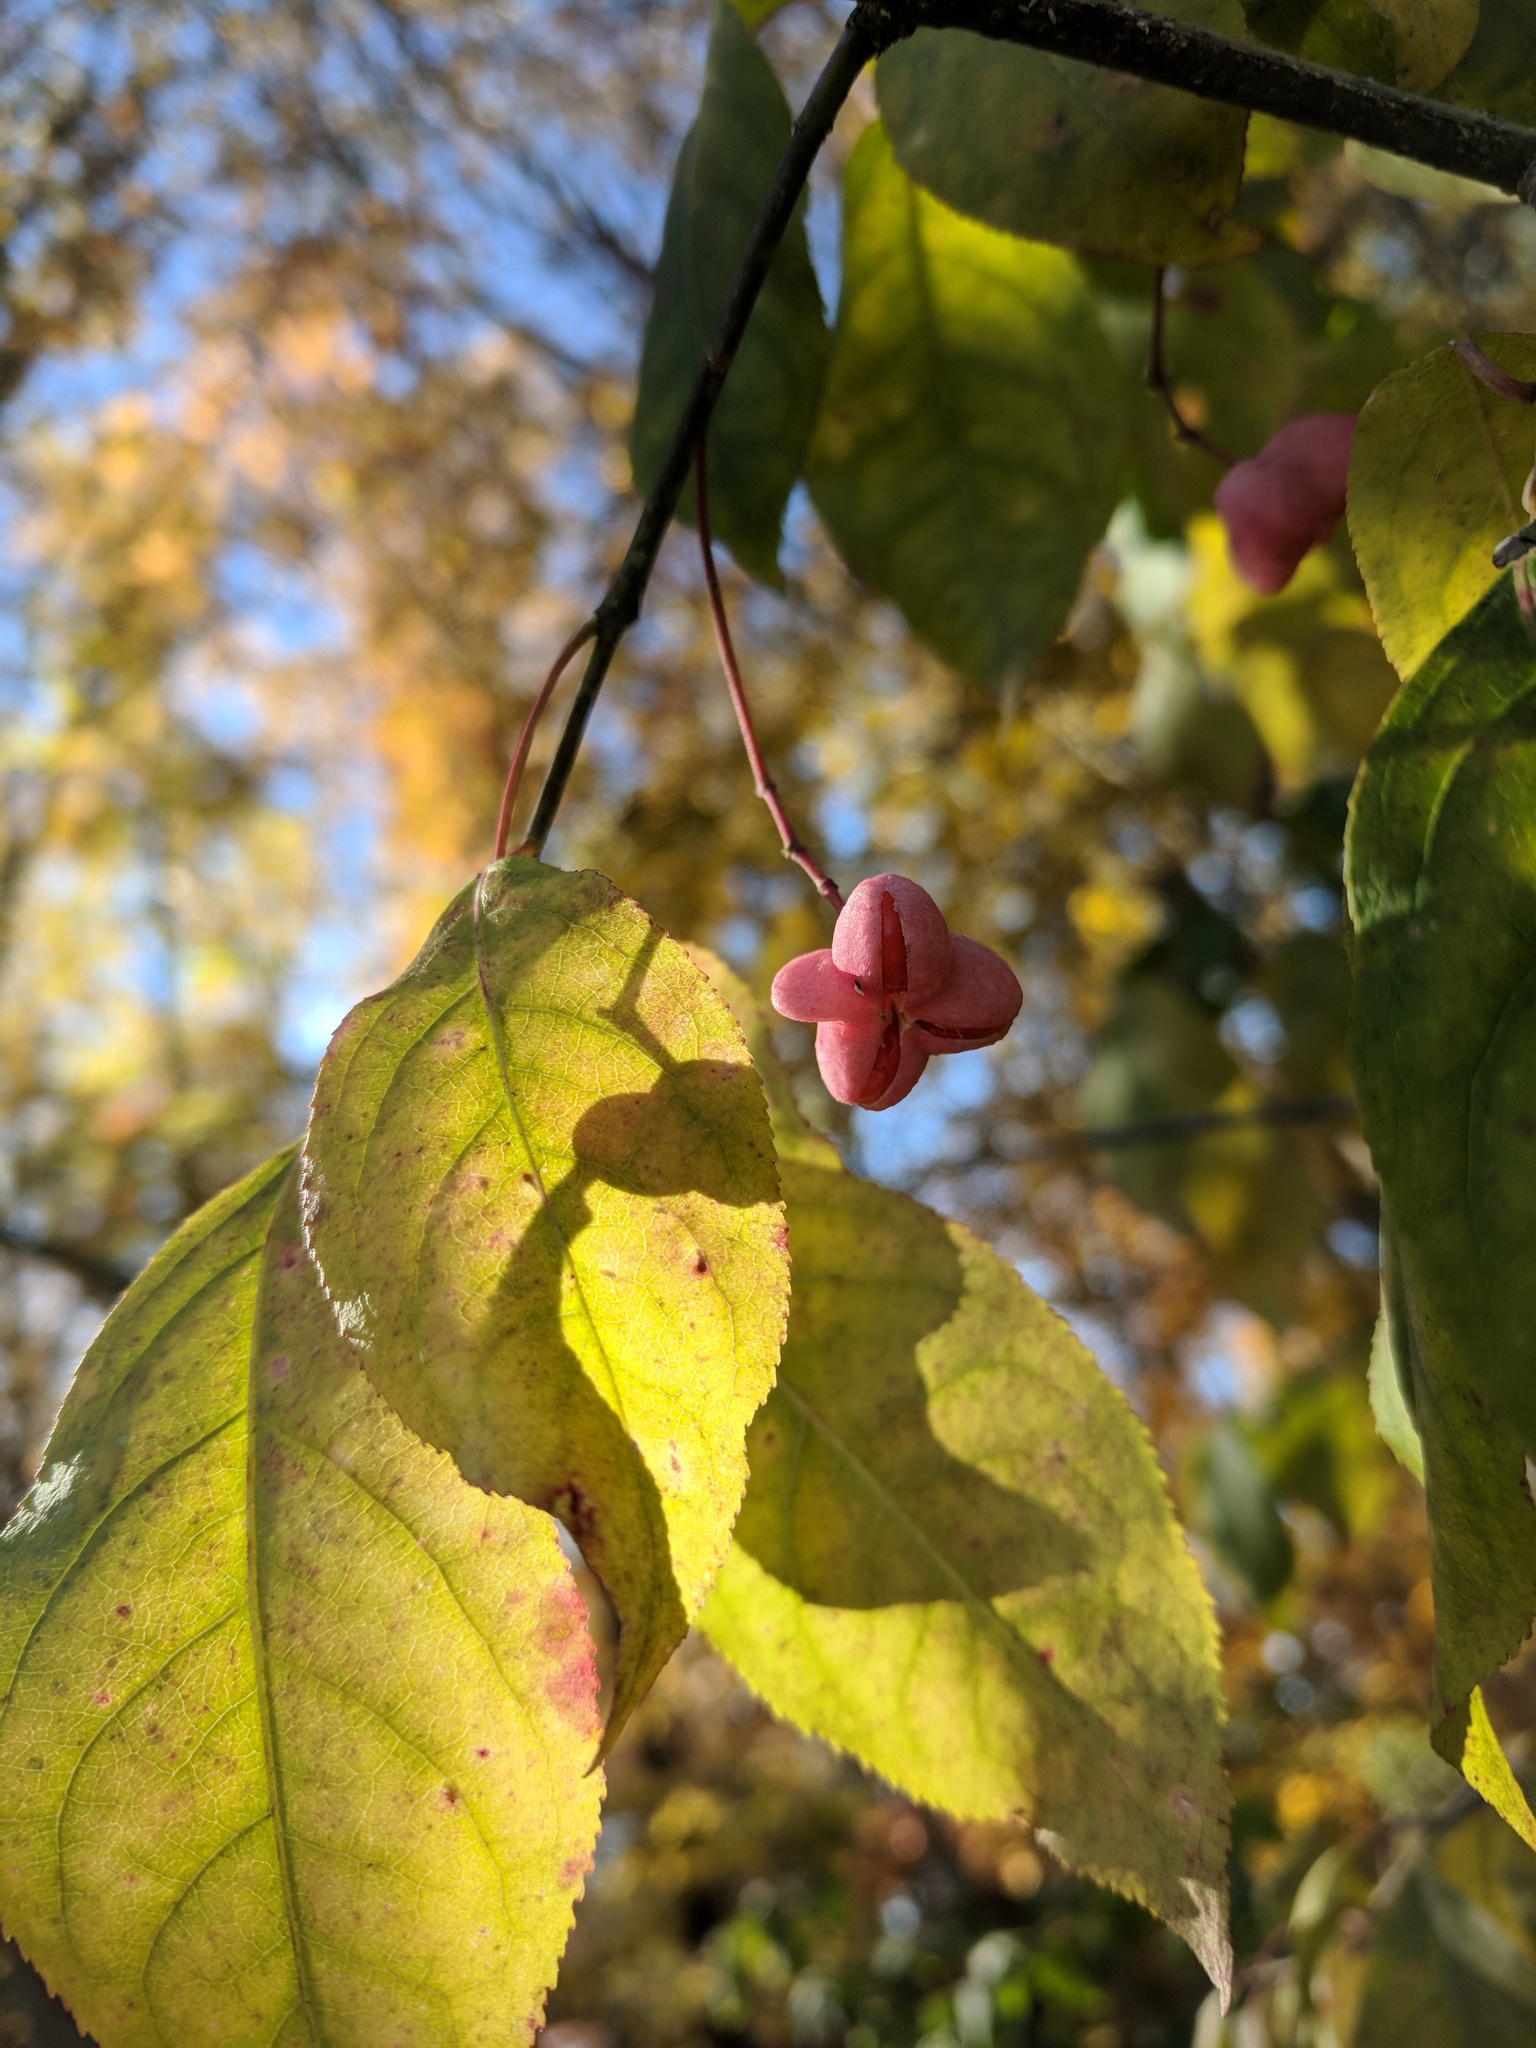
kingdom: Plantae
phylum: Tracheophyta
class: Magnoliopsida
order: Celastrales
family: Celastraceae
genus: Euonymus
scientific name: Euonymus atropurpureus
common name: Eastern wahoo
